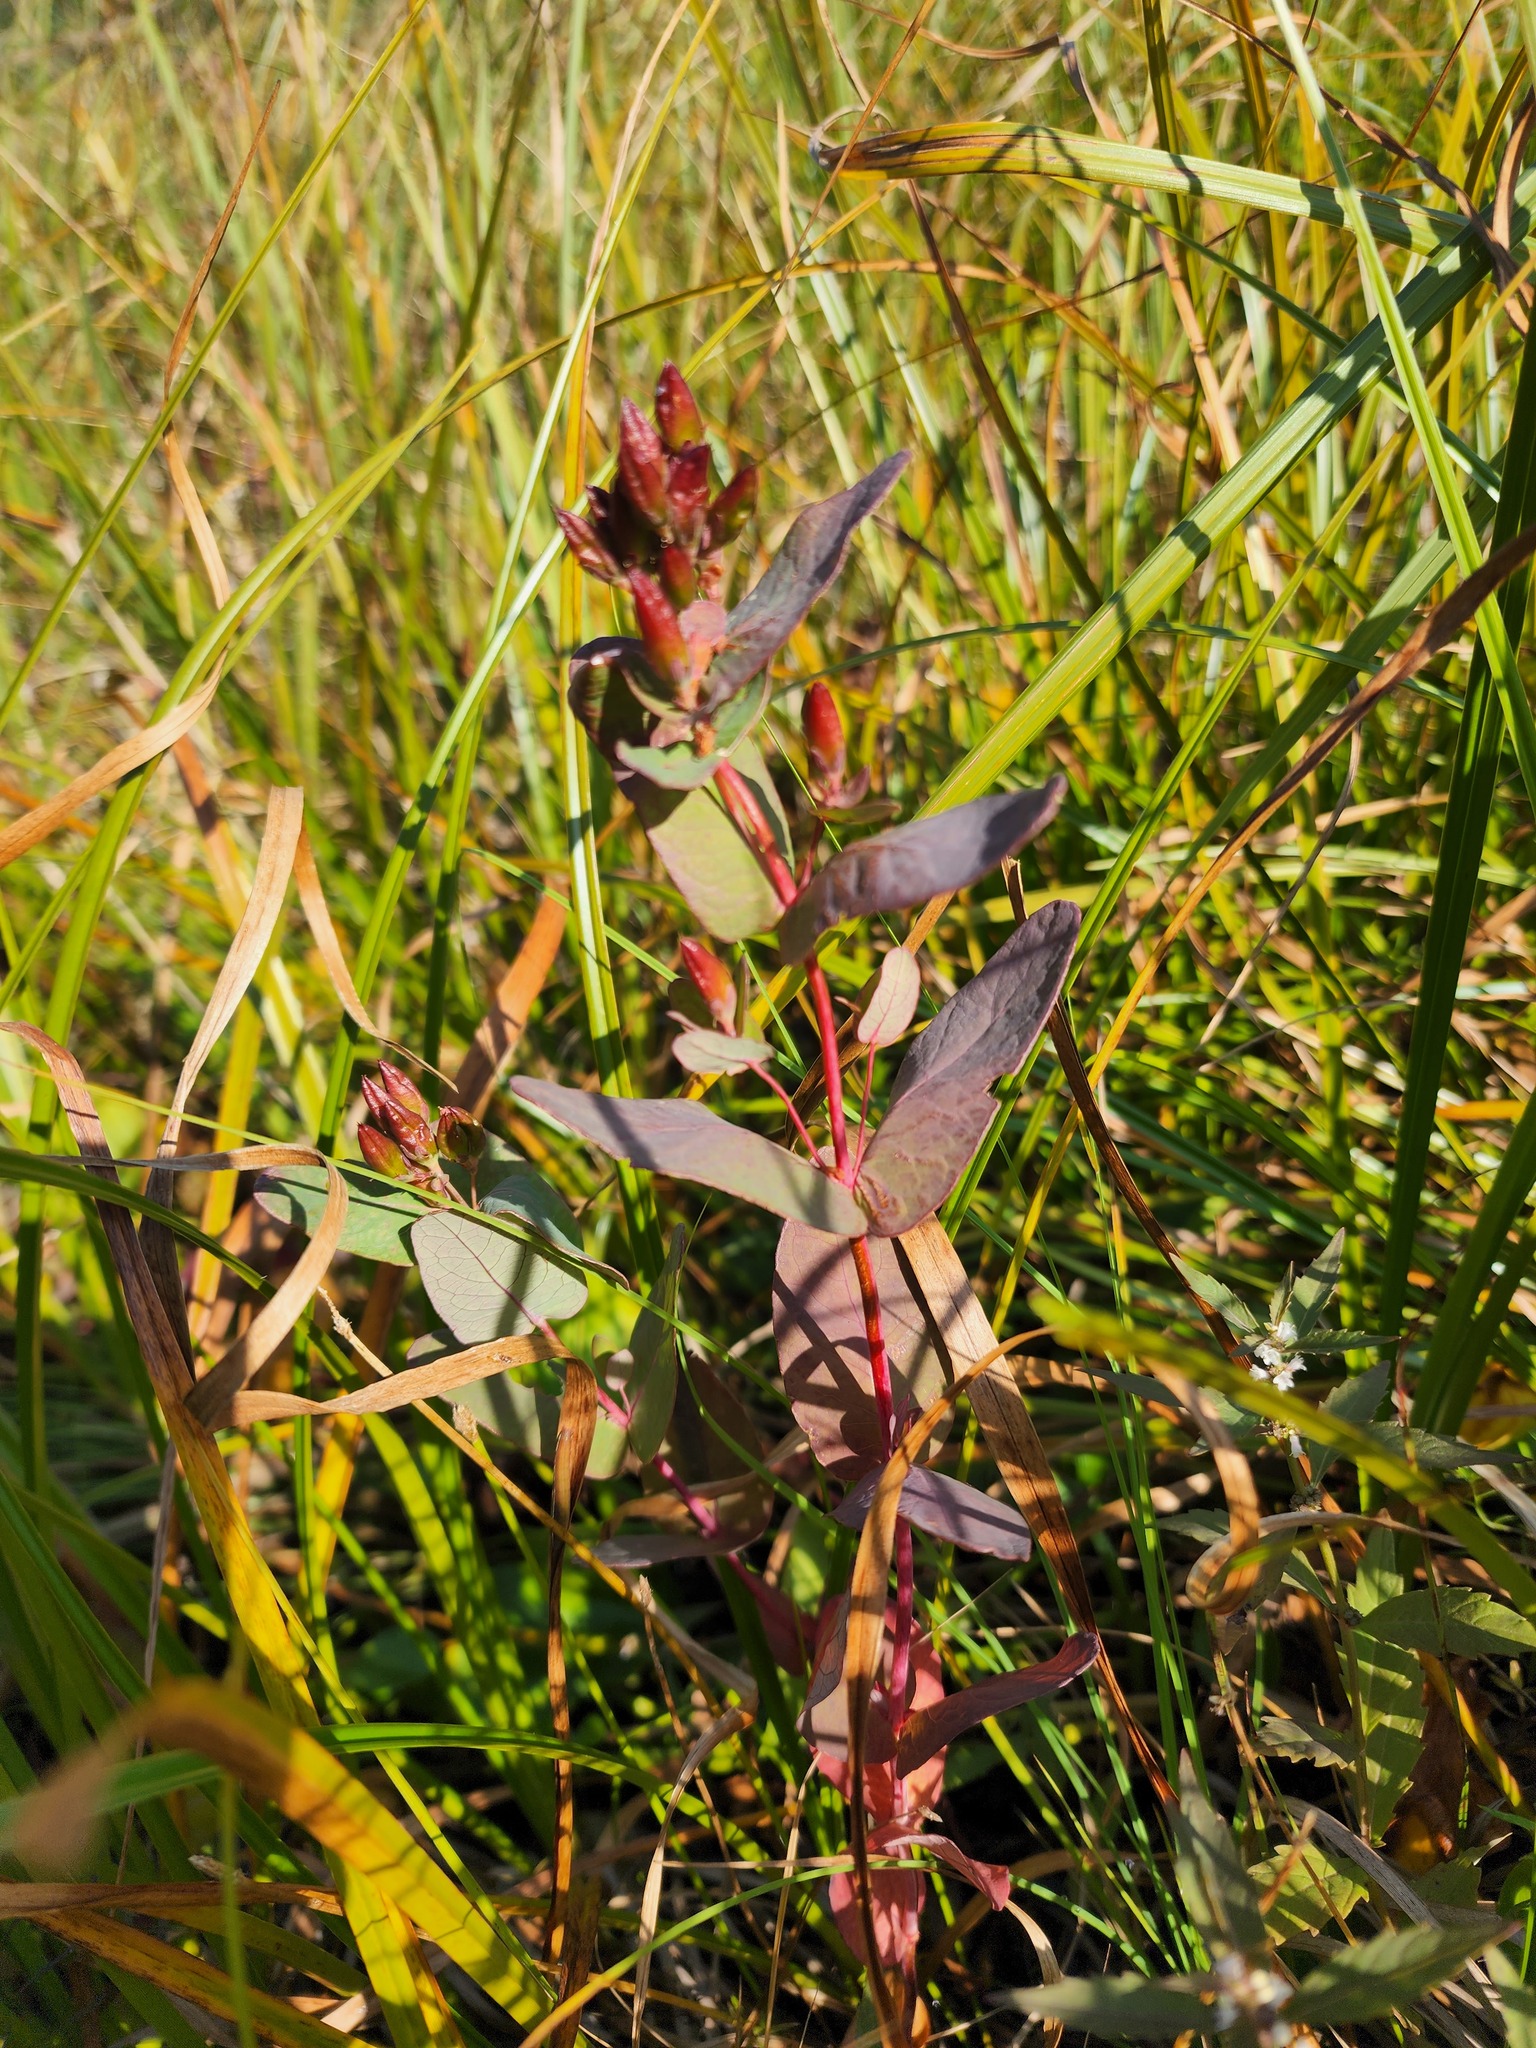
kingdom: Plantae
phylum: Tracheophyta
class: Magnoliopsida
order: Malpighiales
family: Hypericaceae
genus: Triadenum
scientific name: Triadenum fraseri
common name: Fraser's marsh st. johnswort
